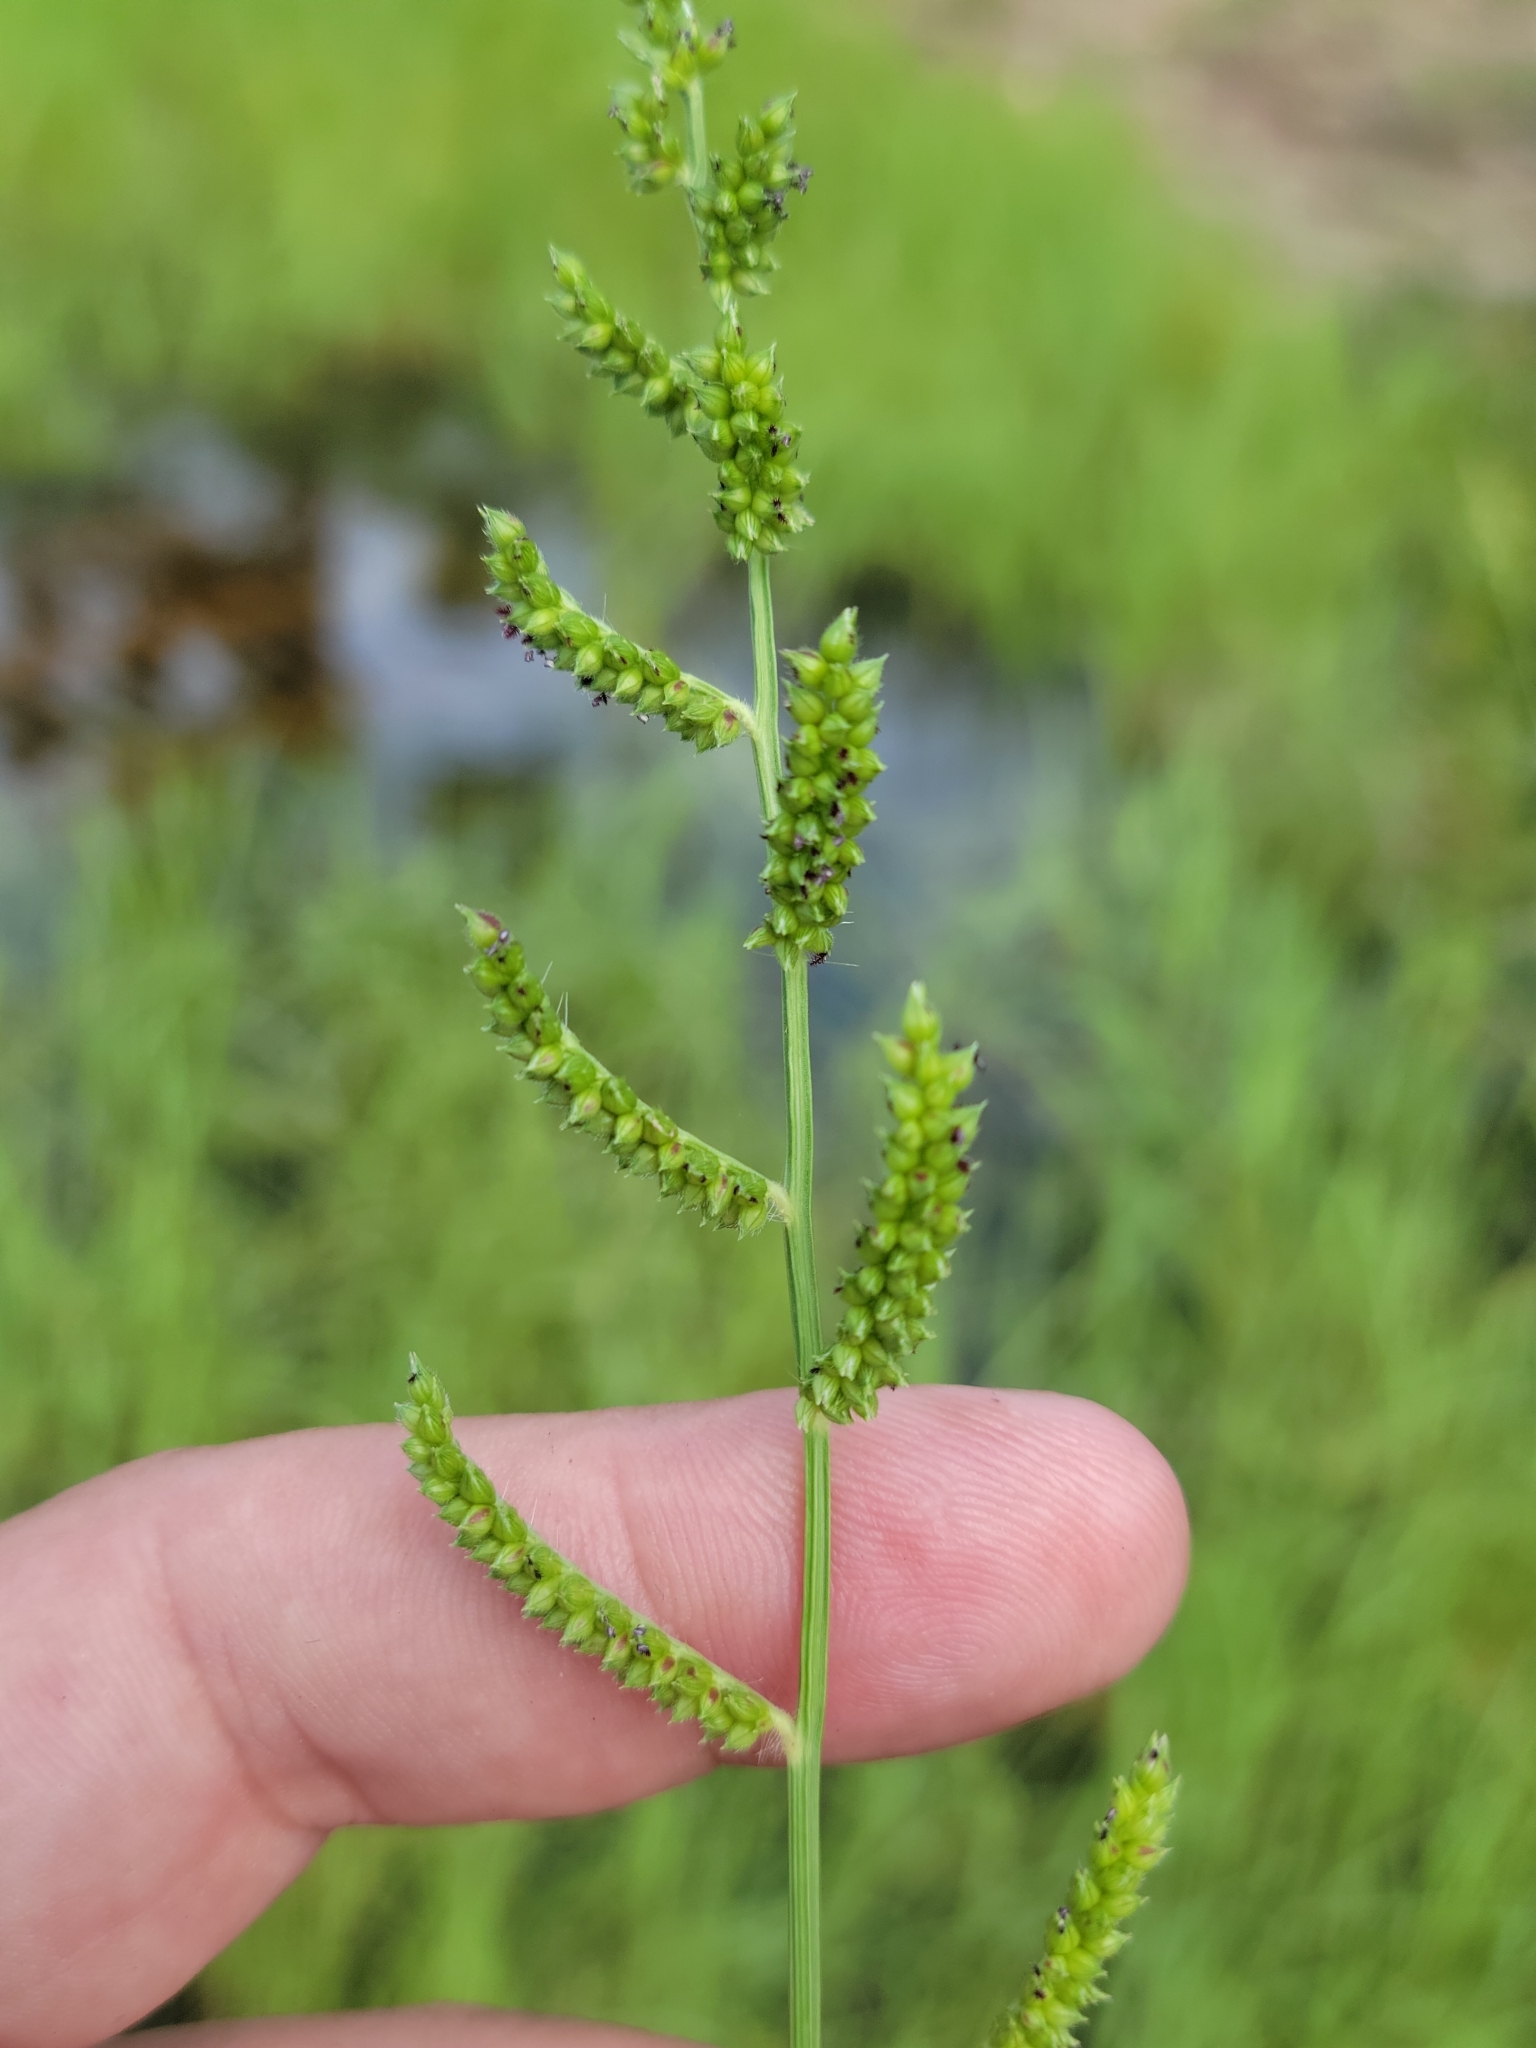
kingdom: Plantae
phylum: Tracheophyta
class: Liliopsida
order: Poales
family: Poaceae
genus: Echinochloa
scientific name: Echinochloa colonum
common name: Jungle rice
